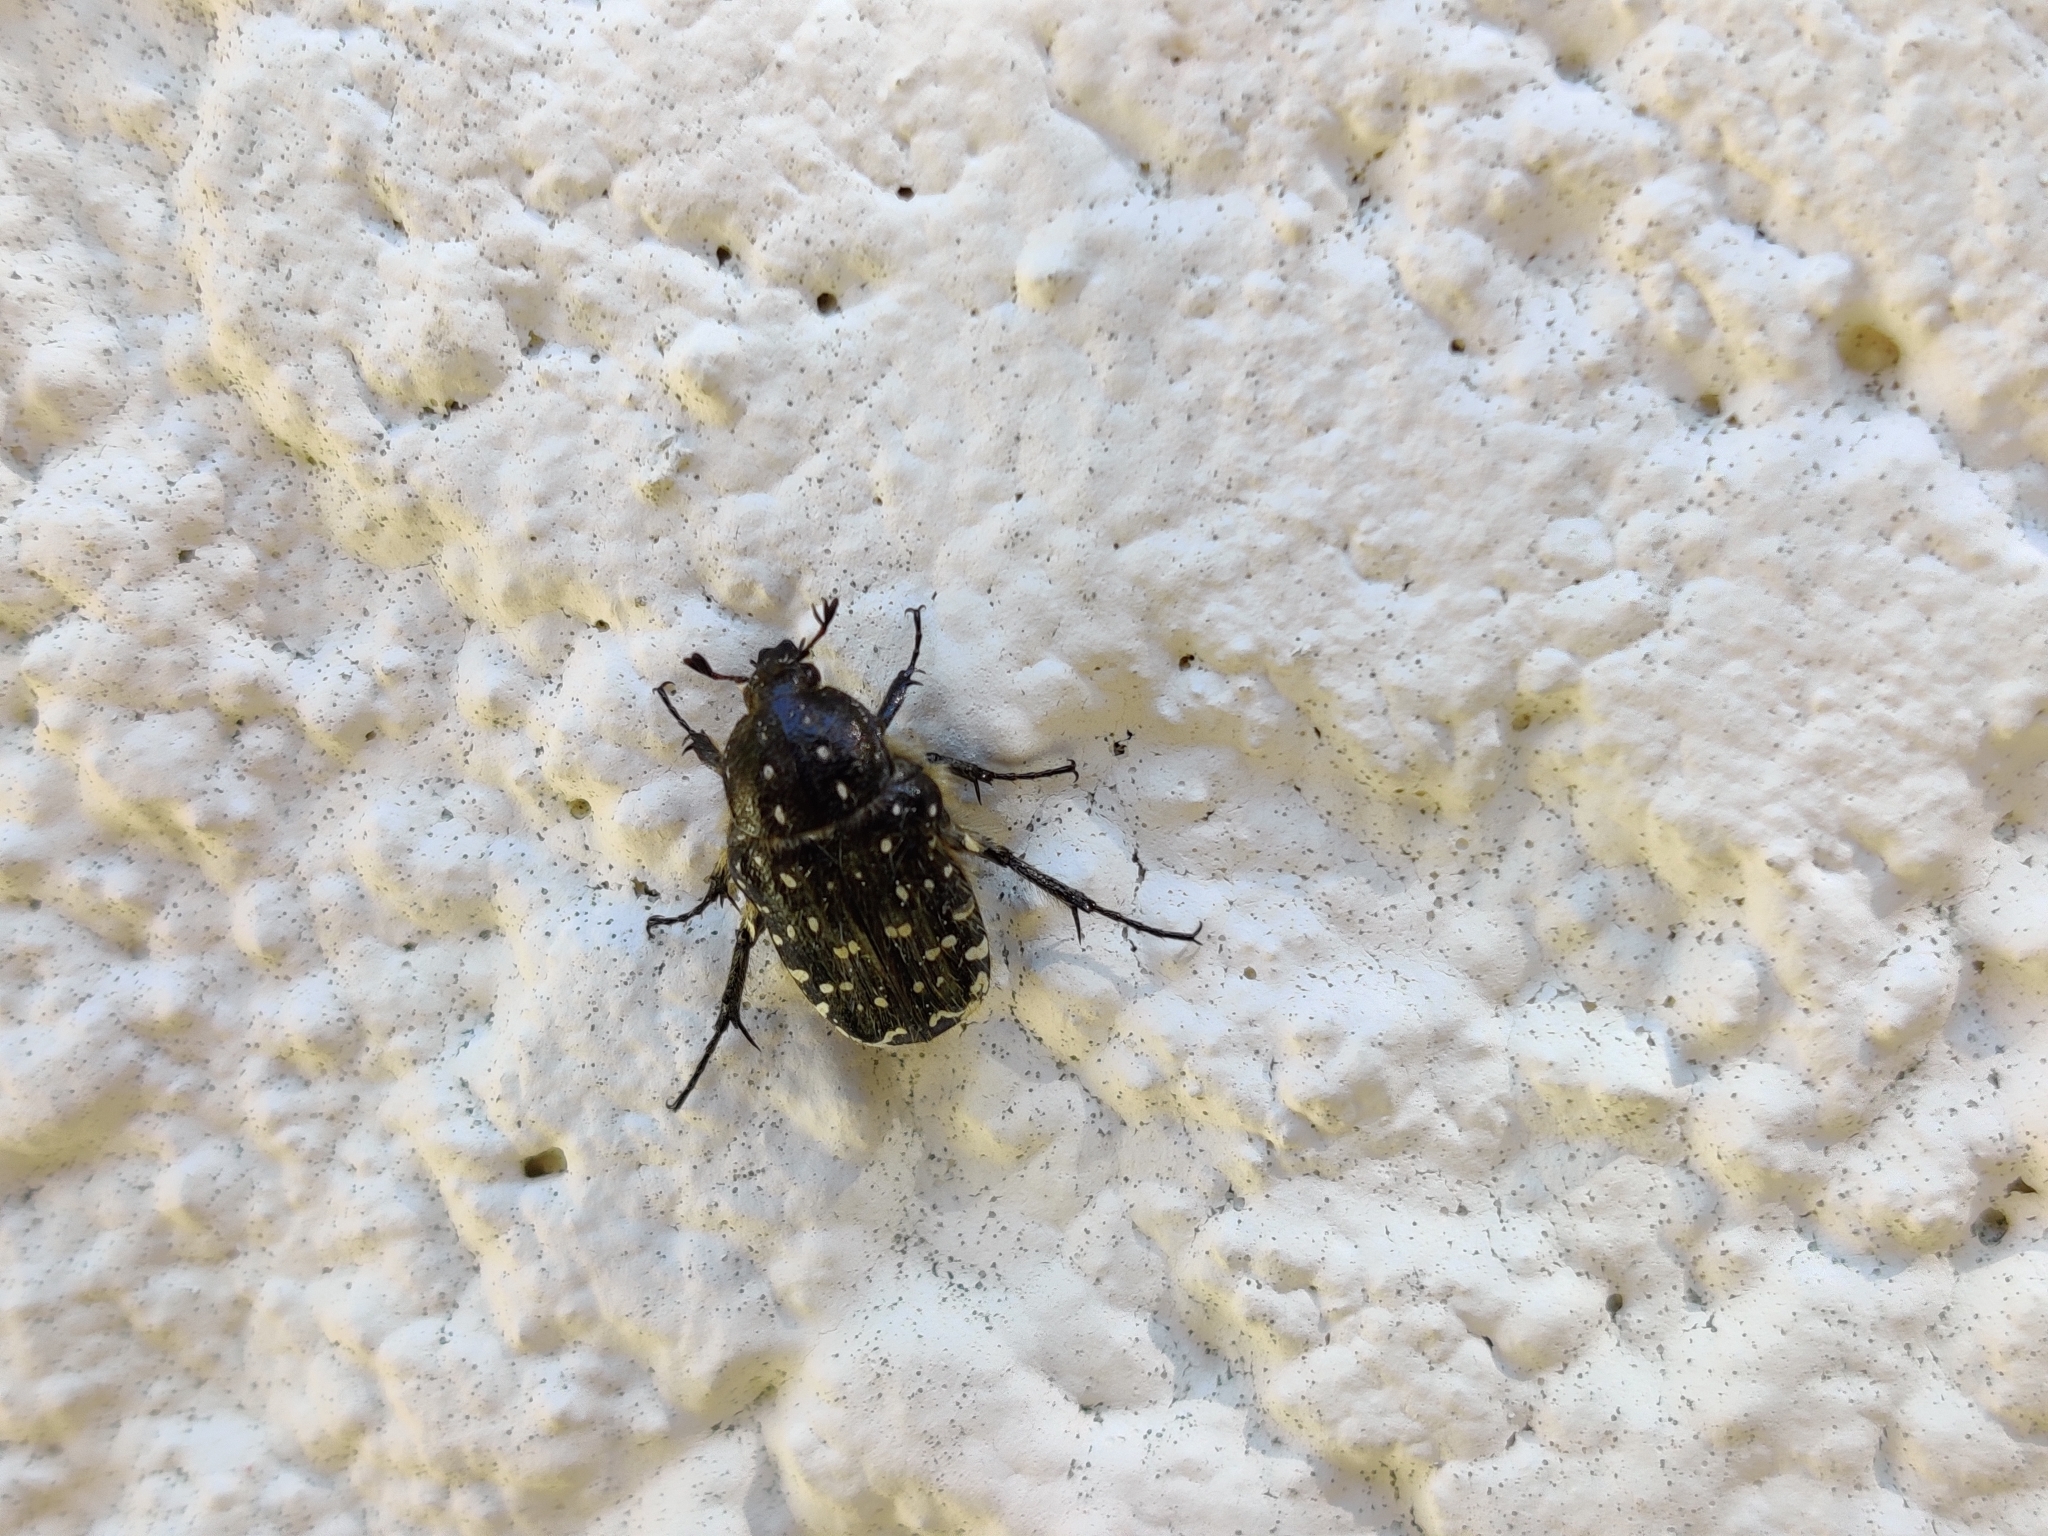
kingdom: Animalia
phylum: Arthropoda
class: Insecta
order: Coleoptera
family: Scarabaeidae
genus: Oxythyrea
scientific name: Oxythyrea funesta
